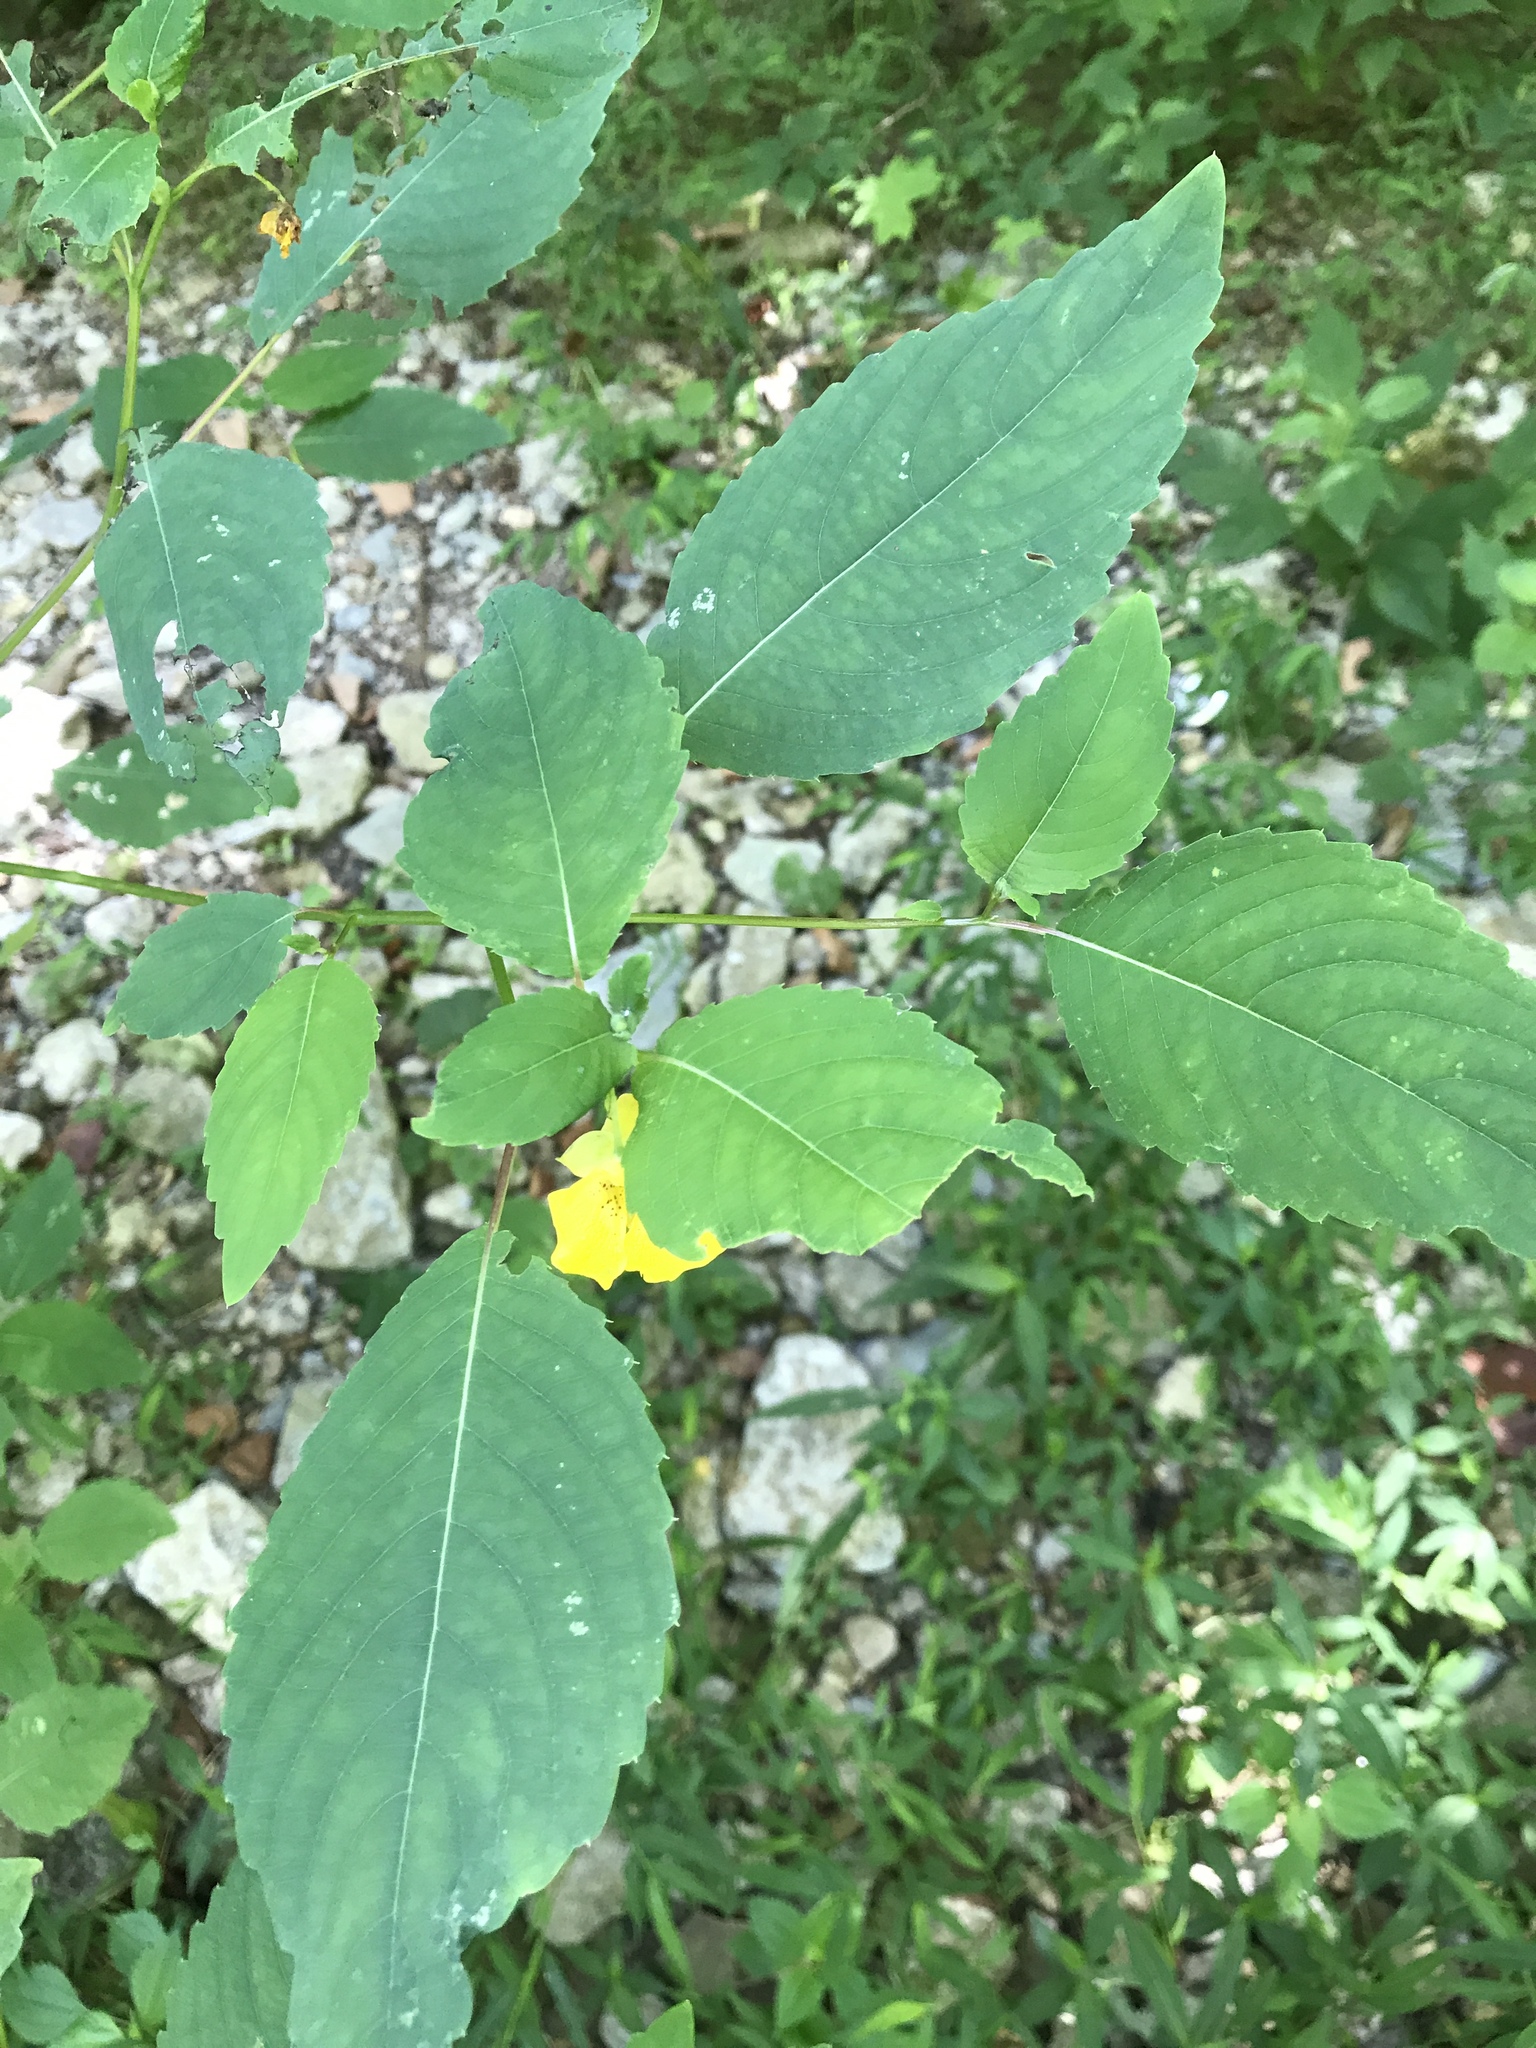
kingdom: Plantae
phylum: Tracheophyta
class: Magnoliopsida
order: Ericales
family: Balsaminaceae
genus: Impatiens
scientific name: Impatiens pallida
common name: Pale snapweed
